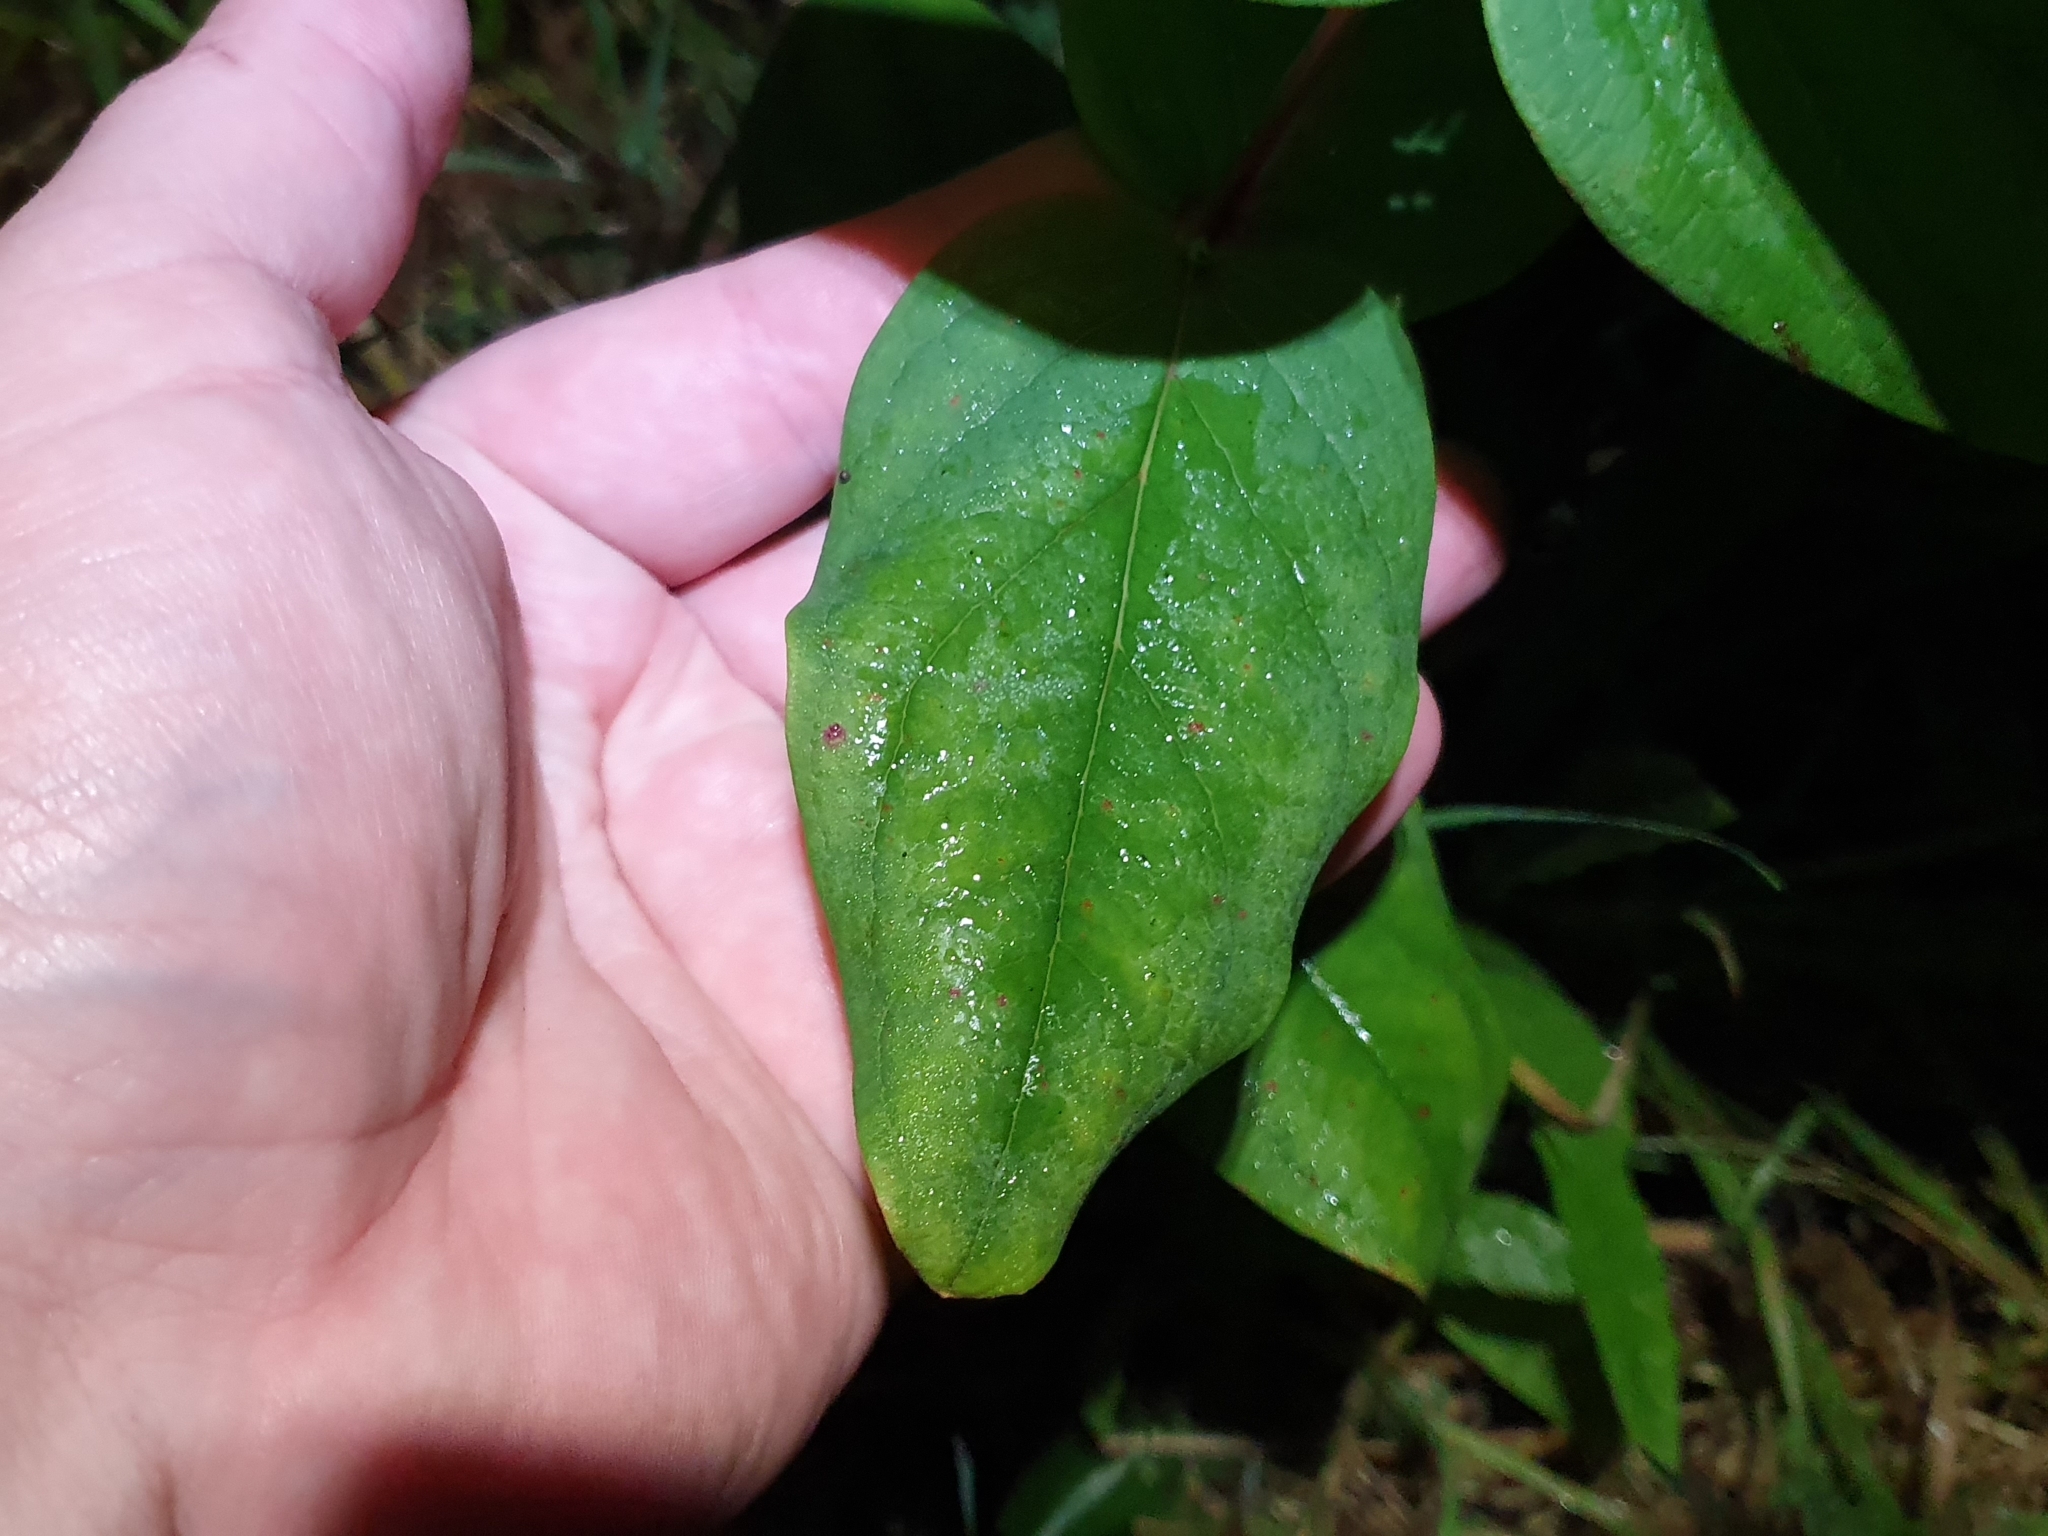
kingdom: Plantae
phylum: Tracheophyta
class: Magnoliopsida
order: Malpighiales
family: Hypericaceae
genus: Hypericum
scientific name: Hypericum androsaemum
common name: Sweet-amber
